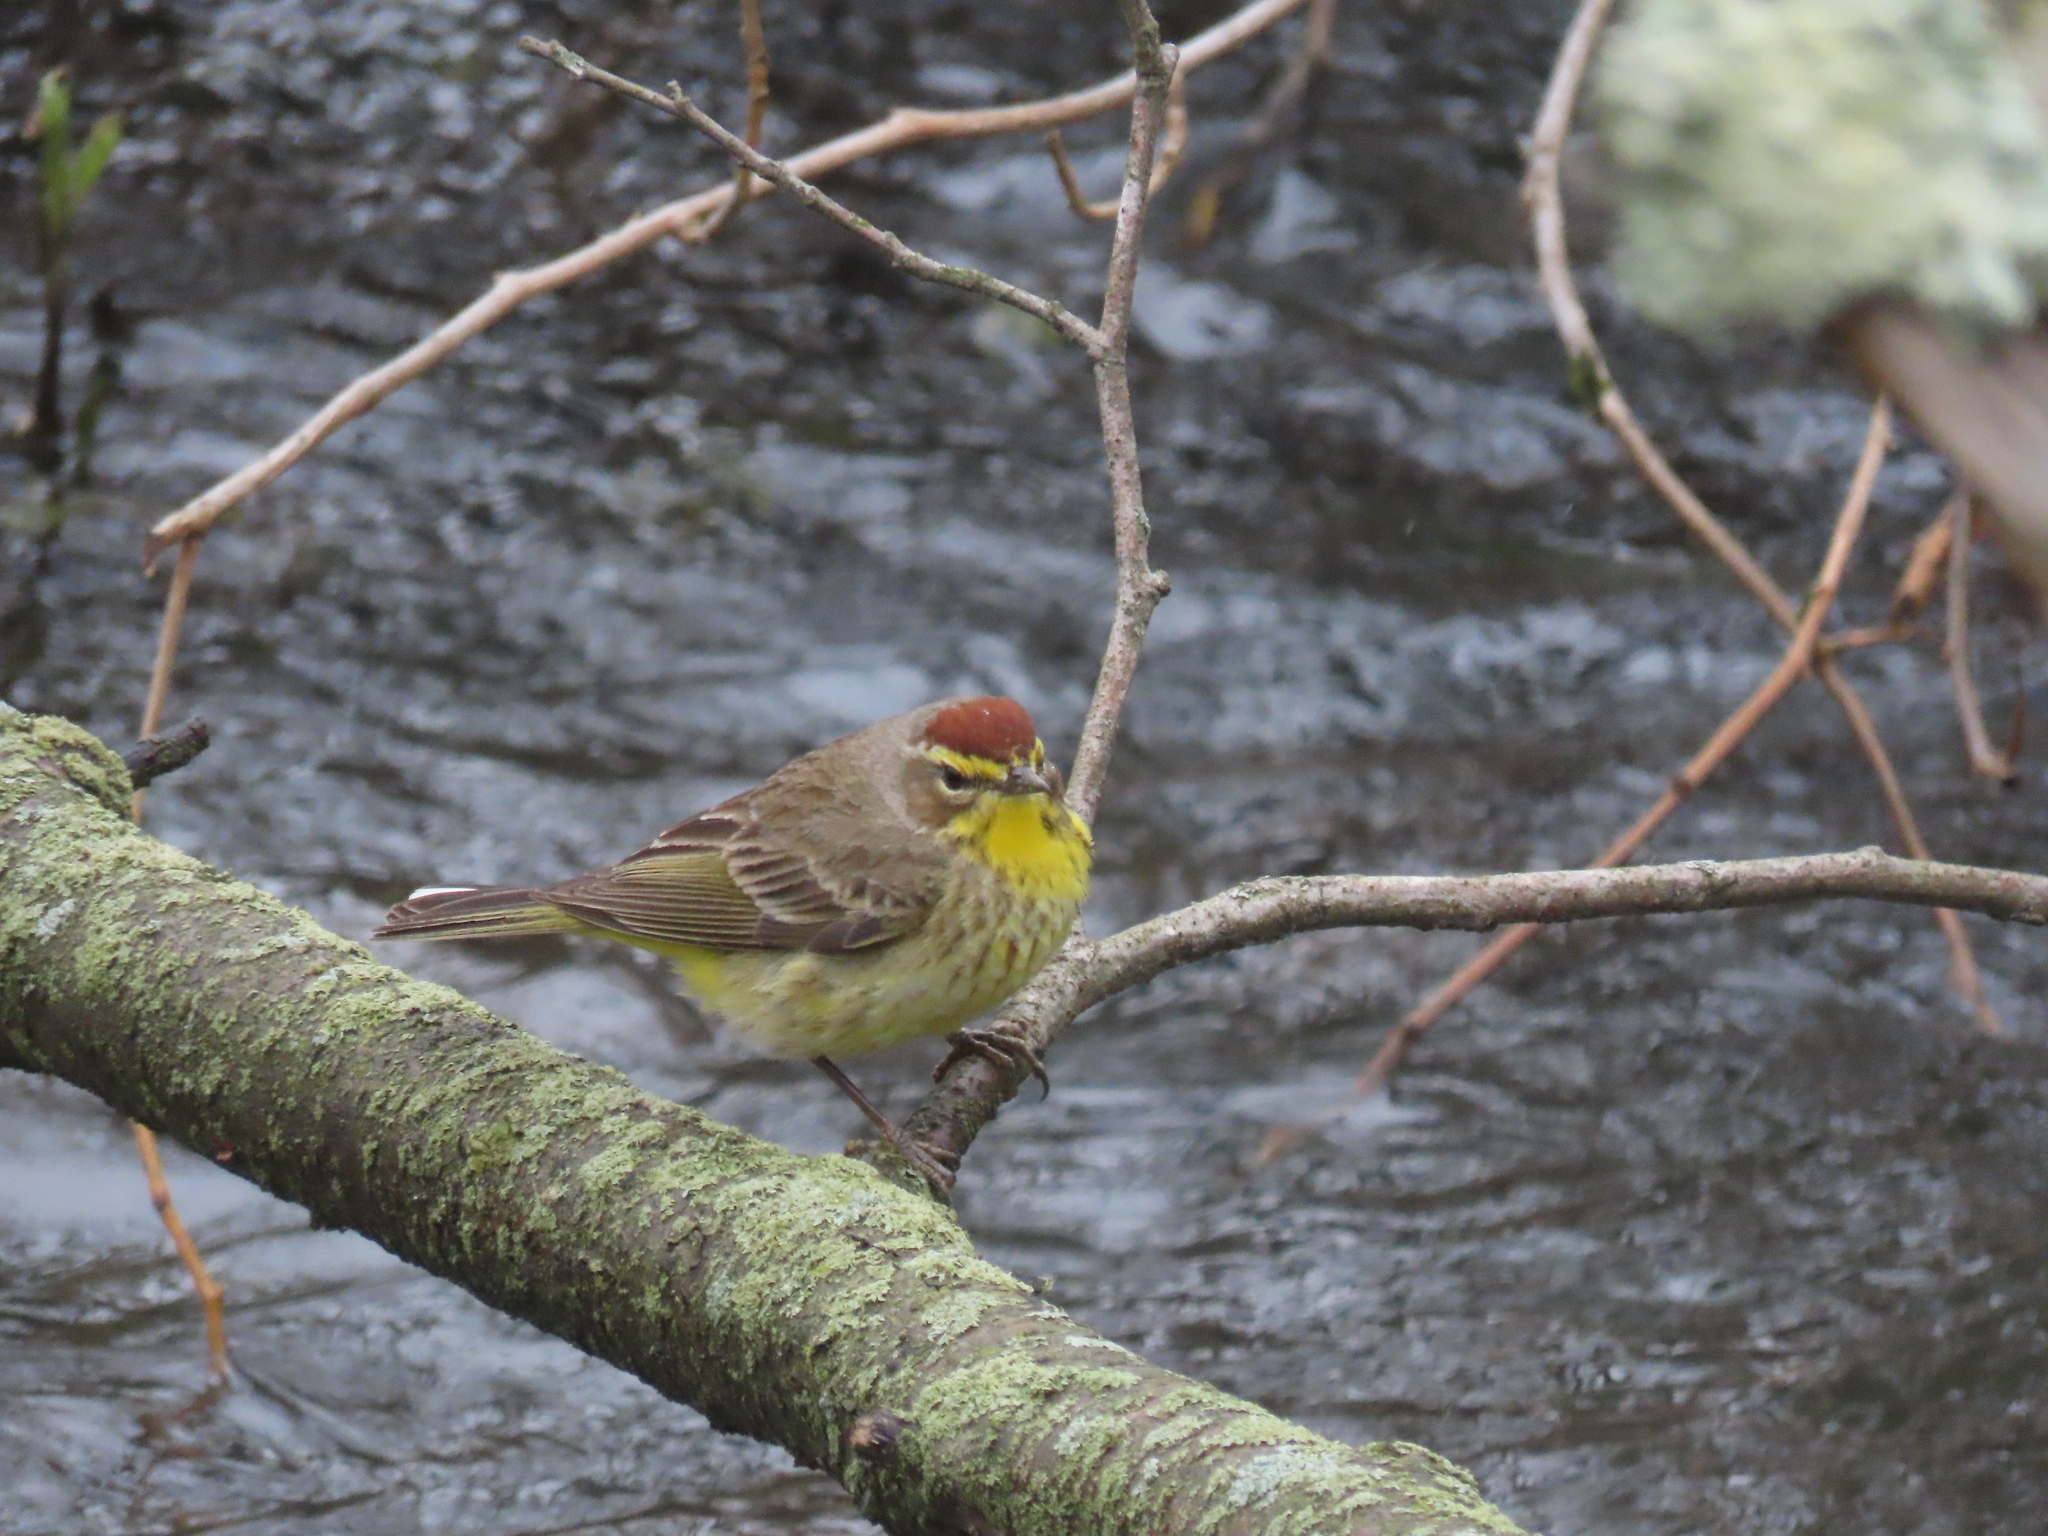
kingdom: Animalia
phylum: Chordata
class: Aves
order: Passeriformes
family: Parulidae
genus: Setophaga
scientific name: Setophaga palmarum
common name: Palm warbler
